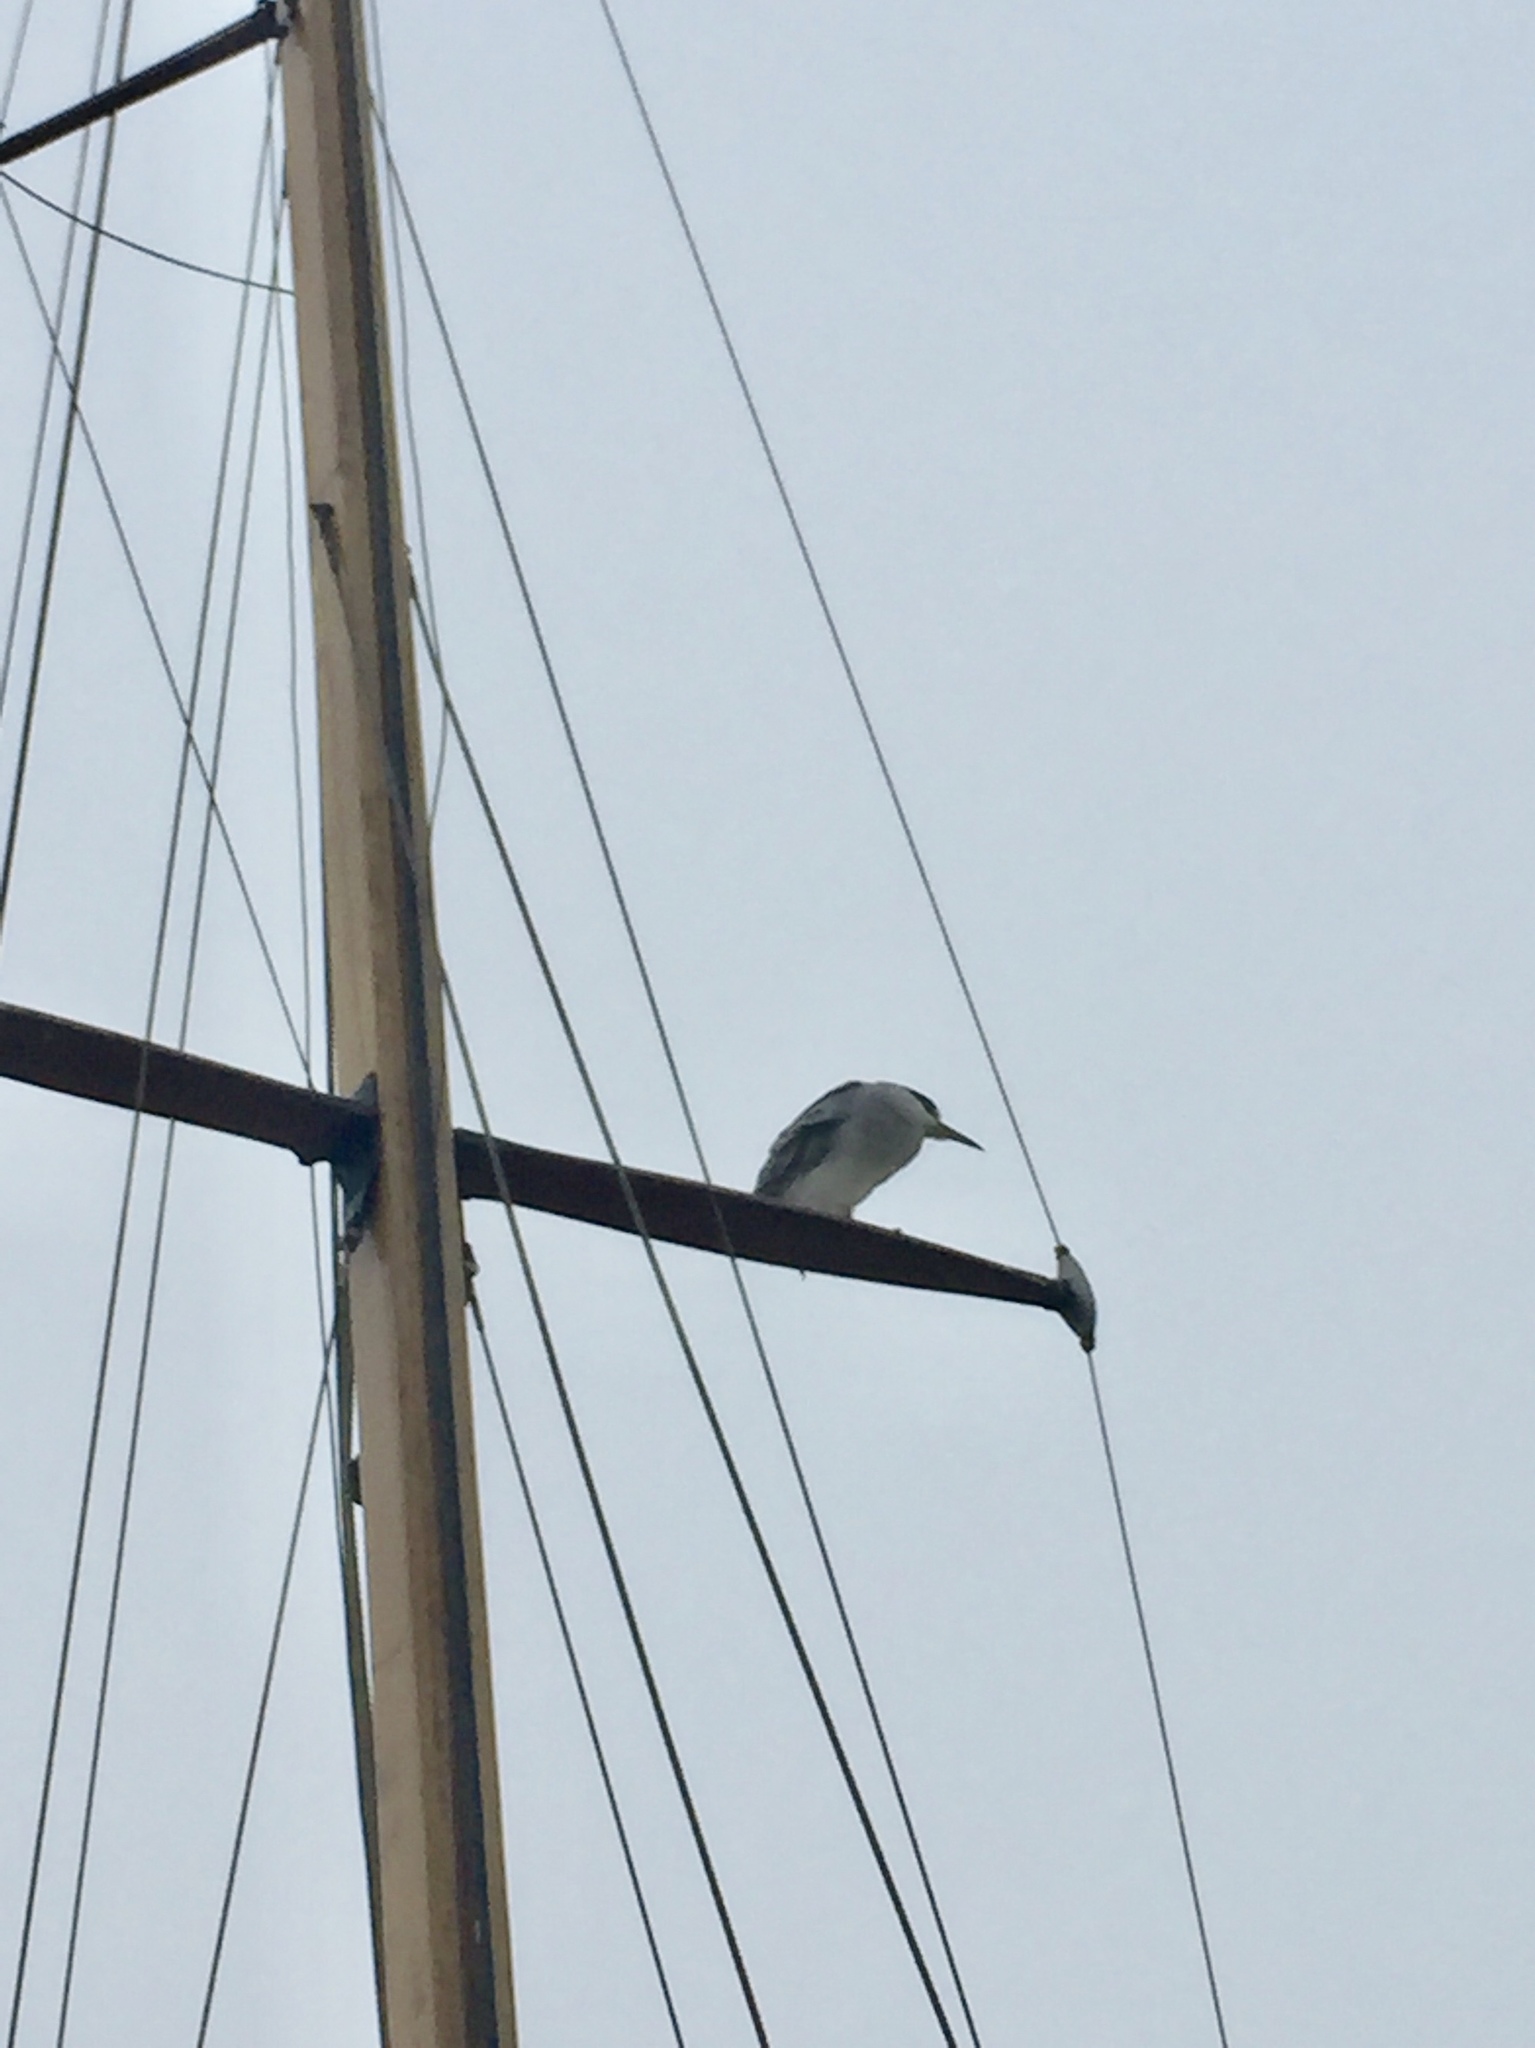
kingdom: Animalia
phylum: Chordata
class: Aves
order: Pelecaniformes
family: Ardeidae
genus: Nycticorax
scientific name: Nycticorax nycticorax
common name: Black-crowned night heron
